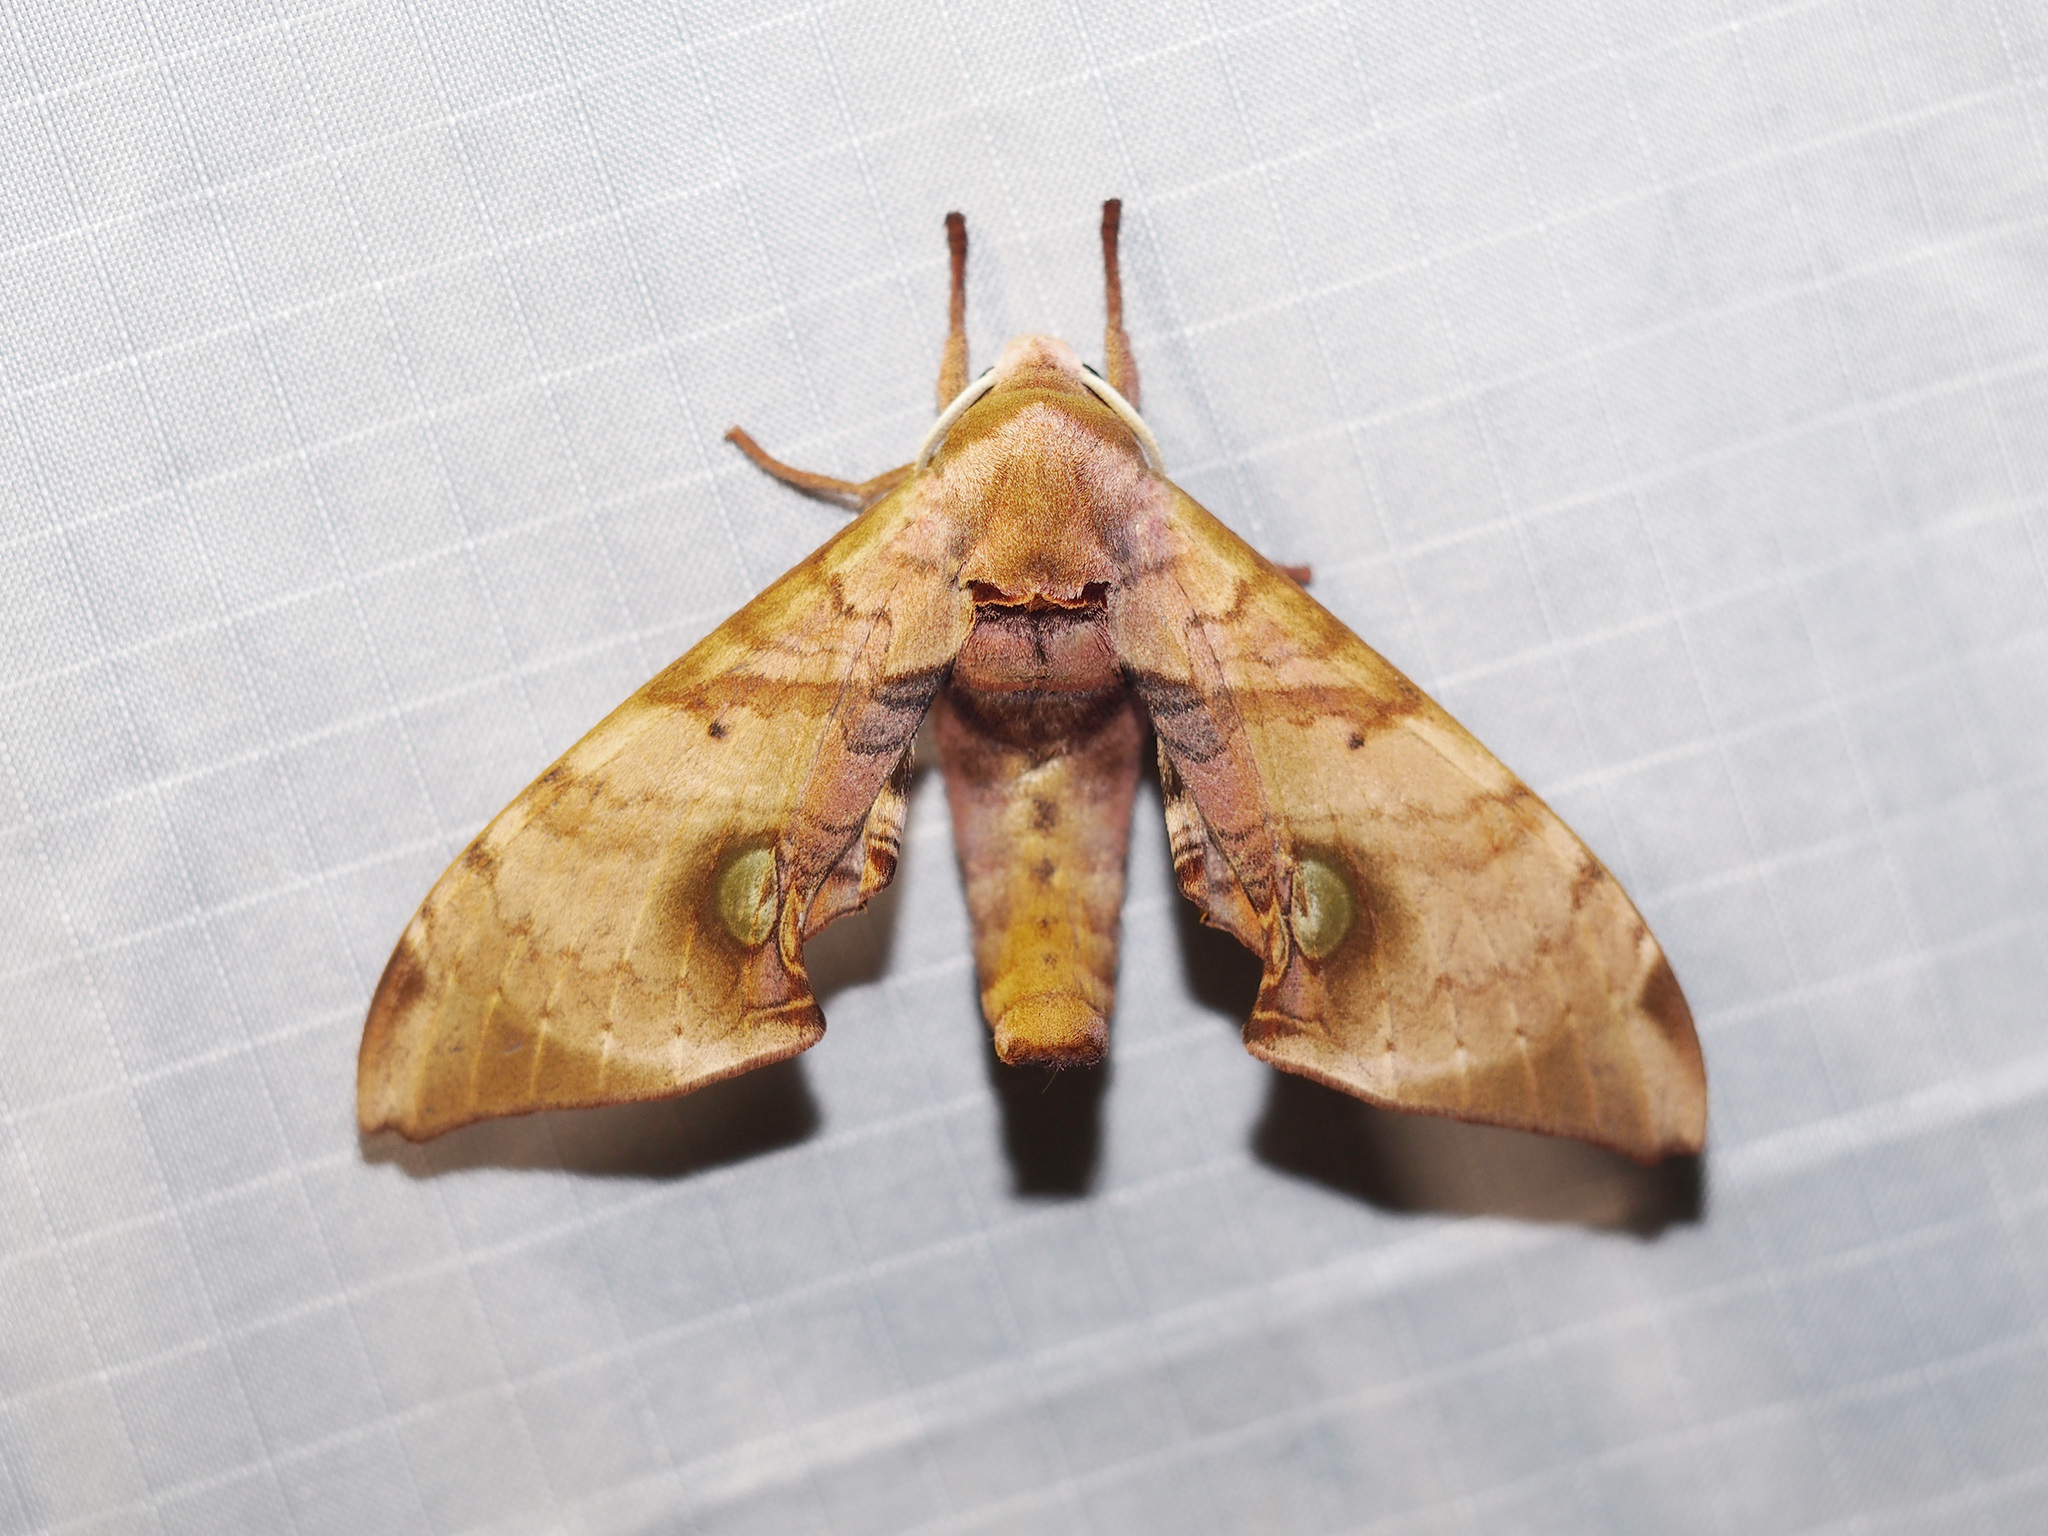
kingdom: Animalia
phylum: Arthropoda
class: Insecta
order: Lepidoptera
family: Sphingidae
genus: Daphnusa
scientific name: Daphnusa ocellaris
